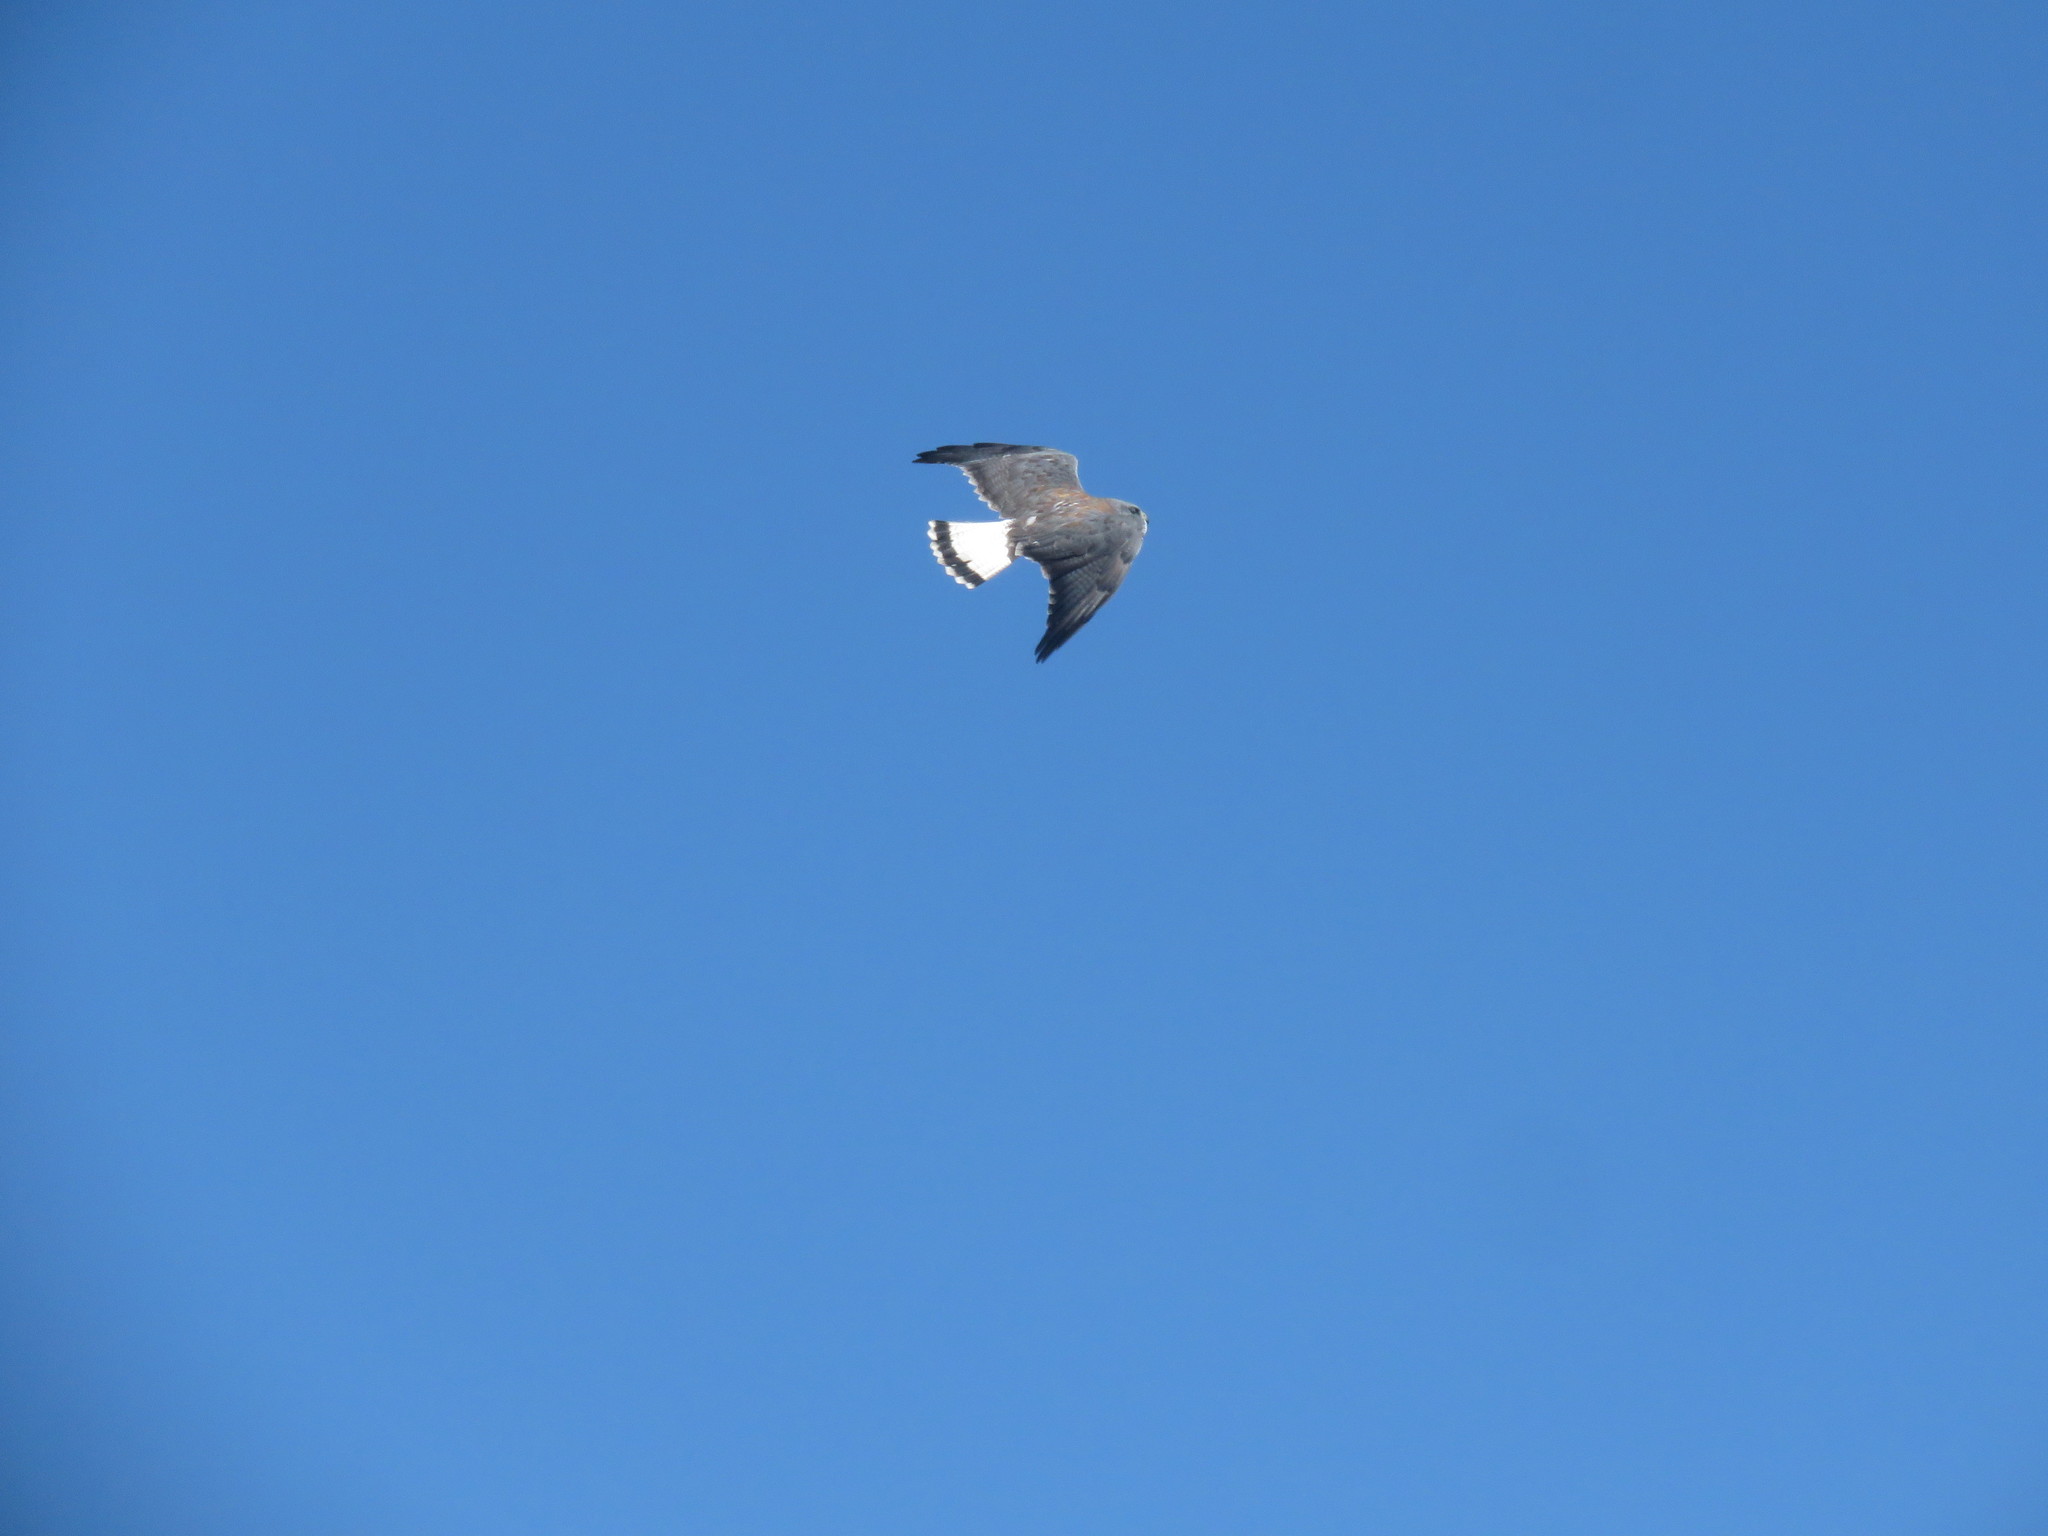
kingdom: Animalia
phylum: Chordata
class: Aves
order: Accipitriformes
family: Accipitridae
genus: Buteo
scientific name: Buteo polyosoma
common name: Variable hawk
